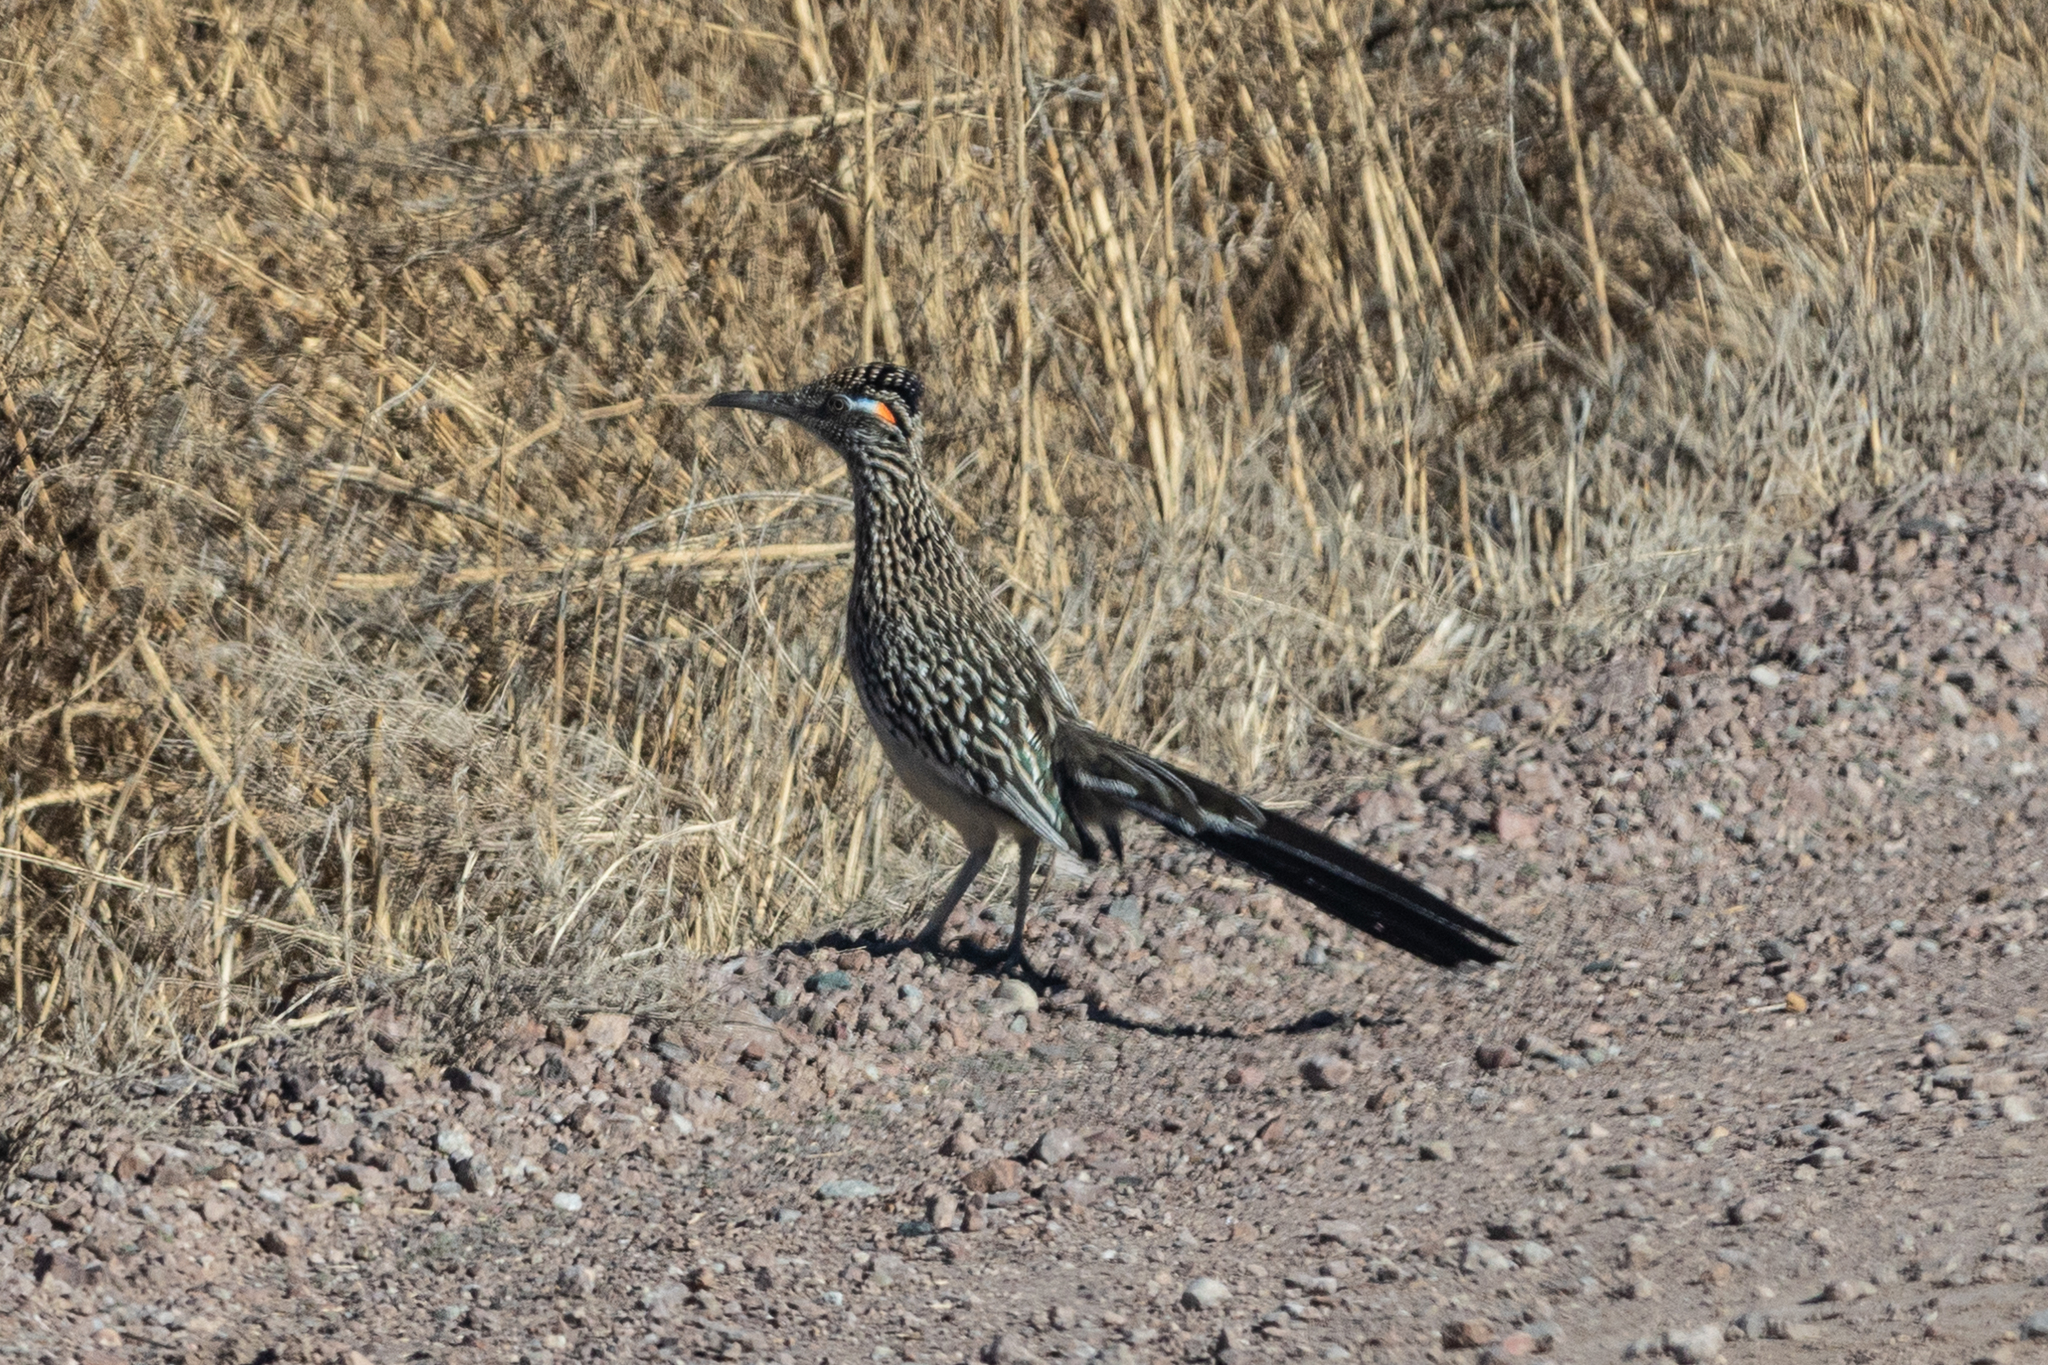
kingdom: Animalia
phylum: Chordata
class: Aves
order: Cuculiformes
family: Cuculidae
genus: Geococcyx
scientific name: Geococcyx californianus
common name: Greater roadrunner
